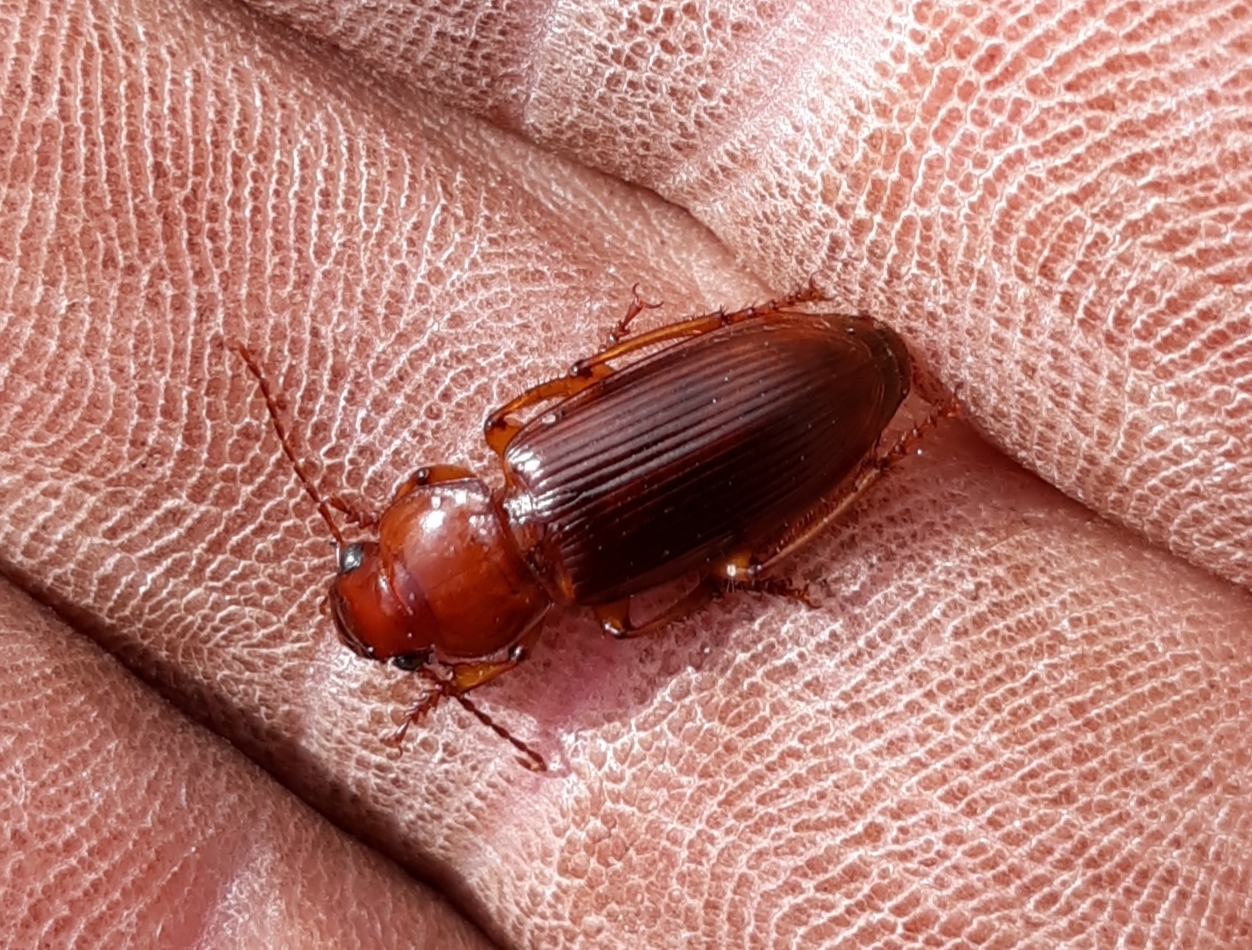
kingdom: Animalia
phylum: Arthropoda
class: Insecta
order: Coleoptera
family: Carabidae
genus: Harpalus
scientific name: Harpalus erraticus
